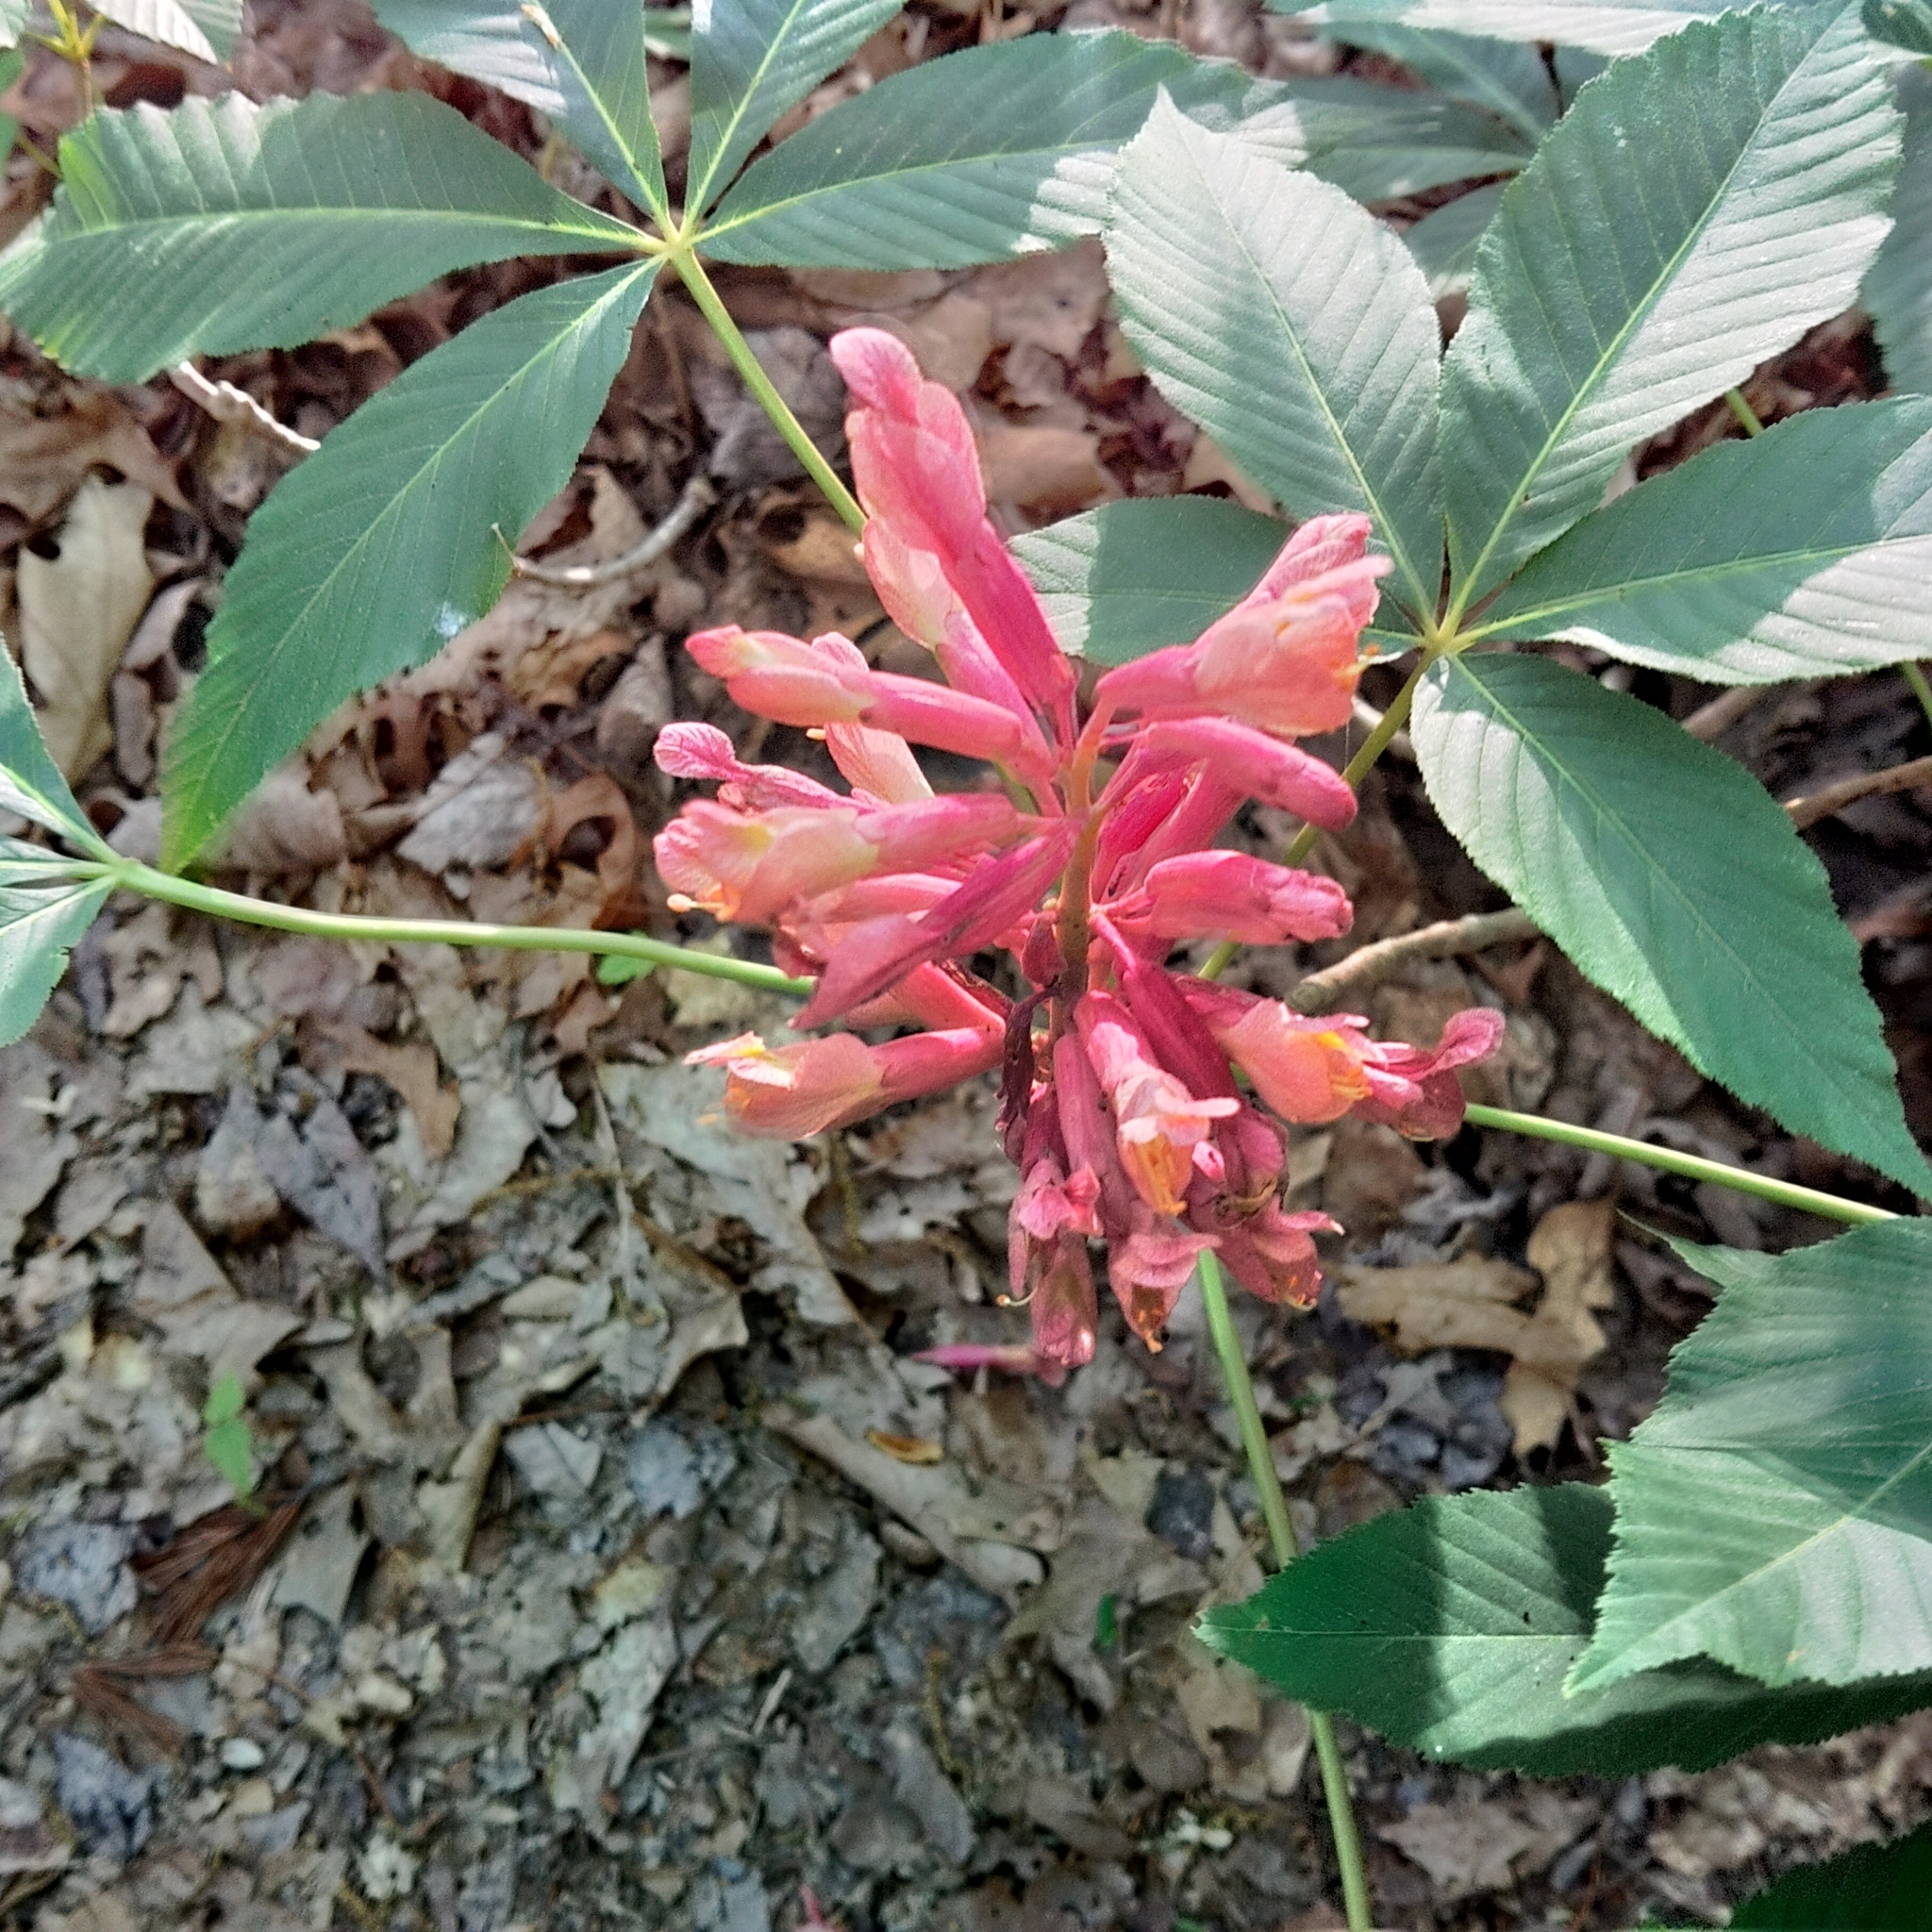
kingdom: Plantae
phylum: Tracheophyta
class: Magnoliopsida
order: Sapindales
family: Sapindaceae
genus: Aesculus
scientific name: Aesculus pavia
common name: Red buckeye
